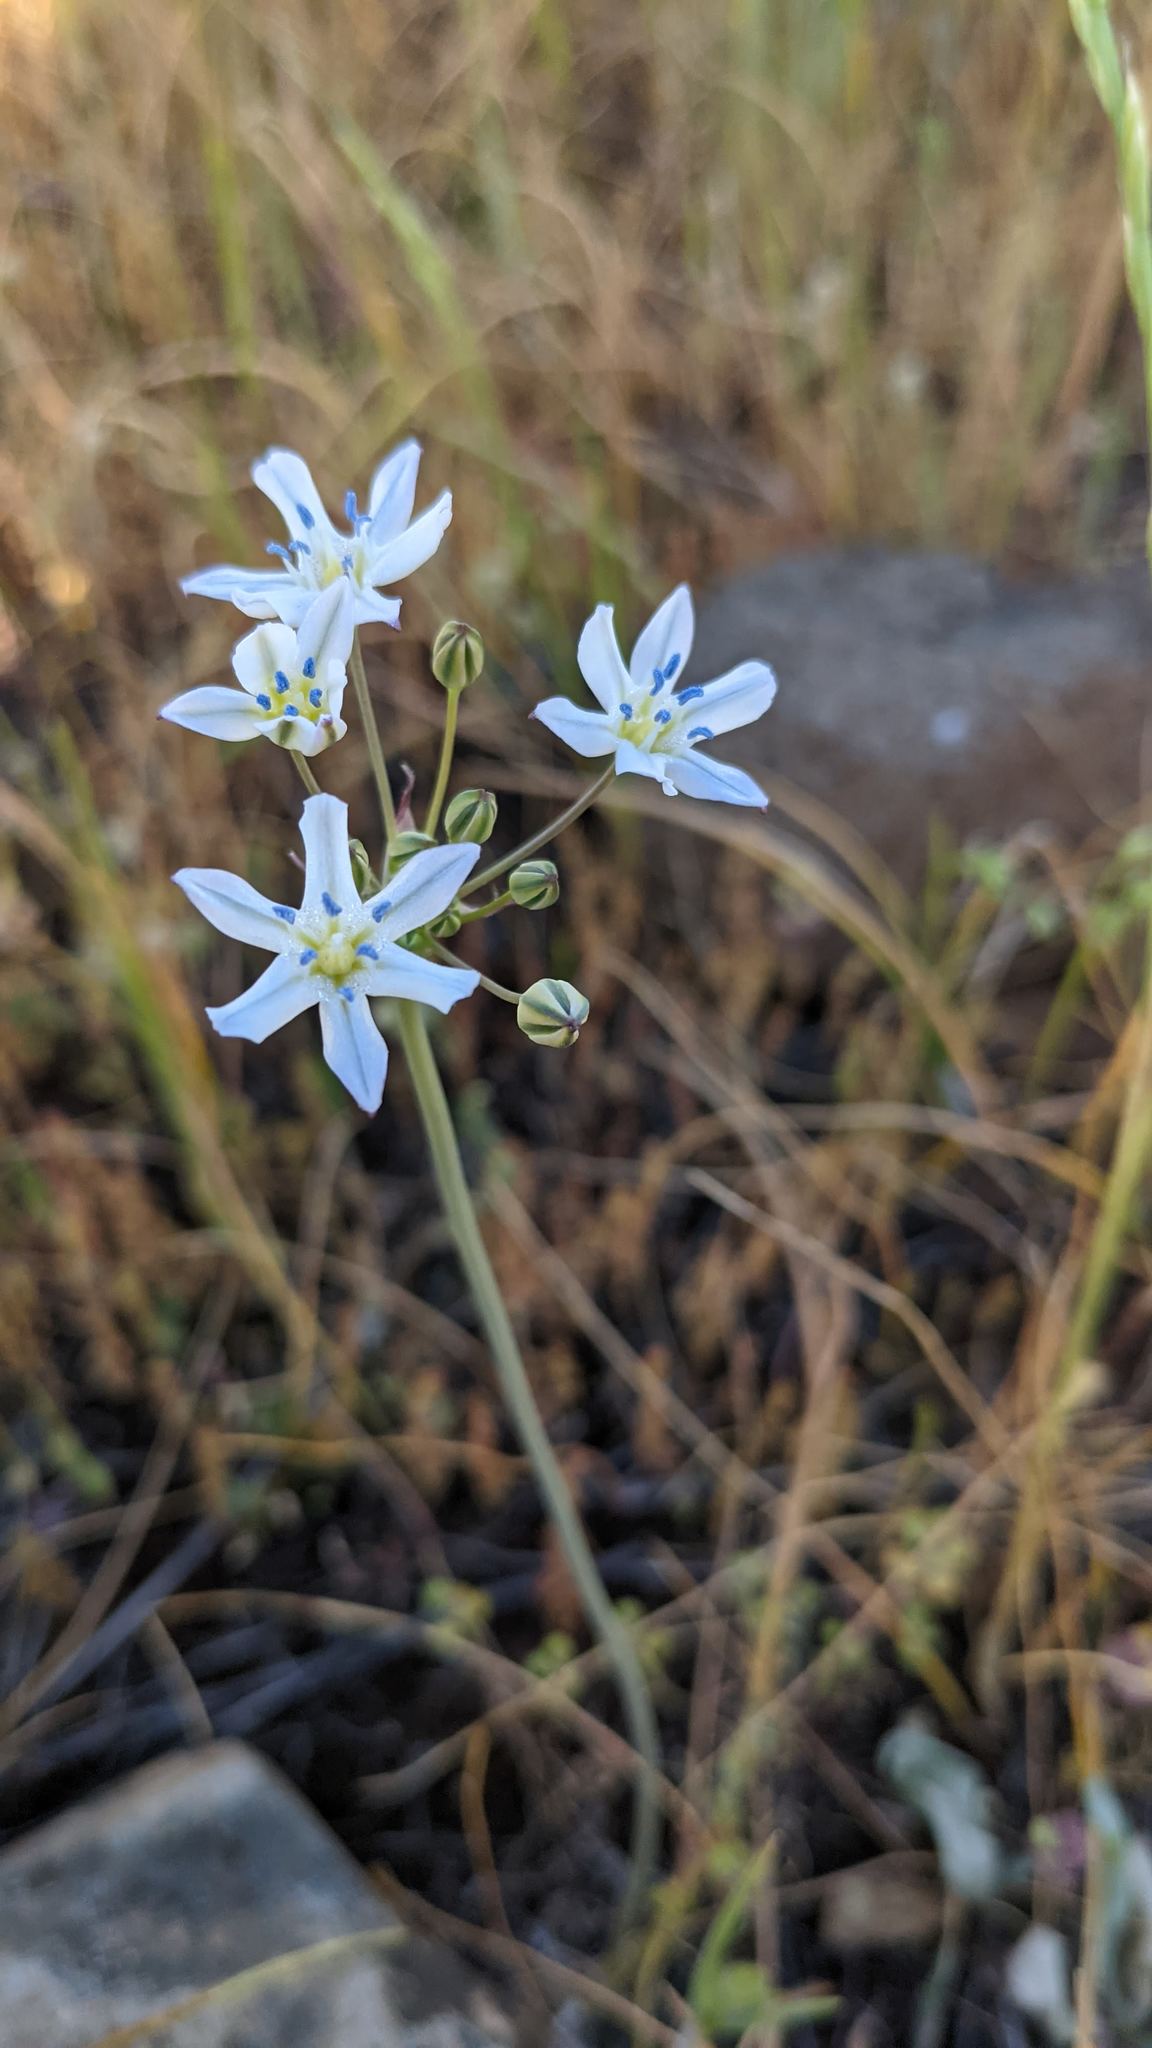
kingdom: Plantae
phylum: Tracheophyta
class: Liliopsida
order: Asparagales
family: Asparagaceae
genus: Triteleia
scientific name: Triteleia lilacina
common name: Lilac-flower wild hyacinth
